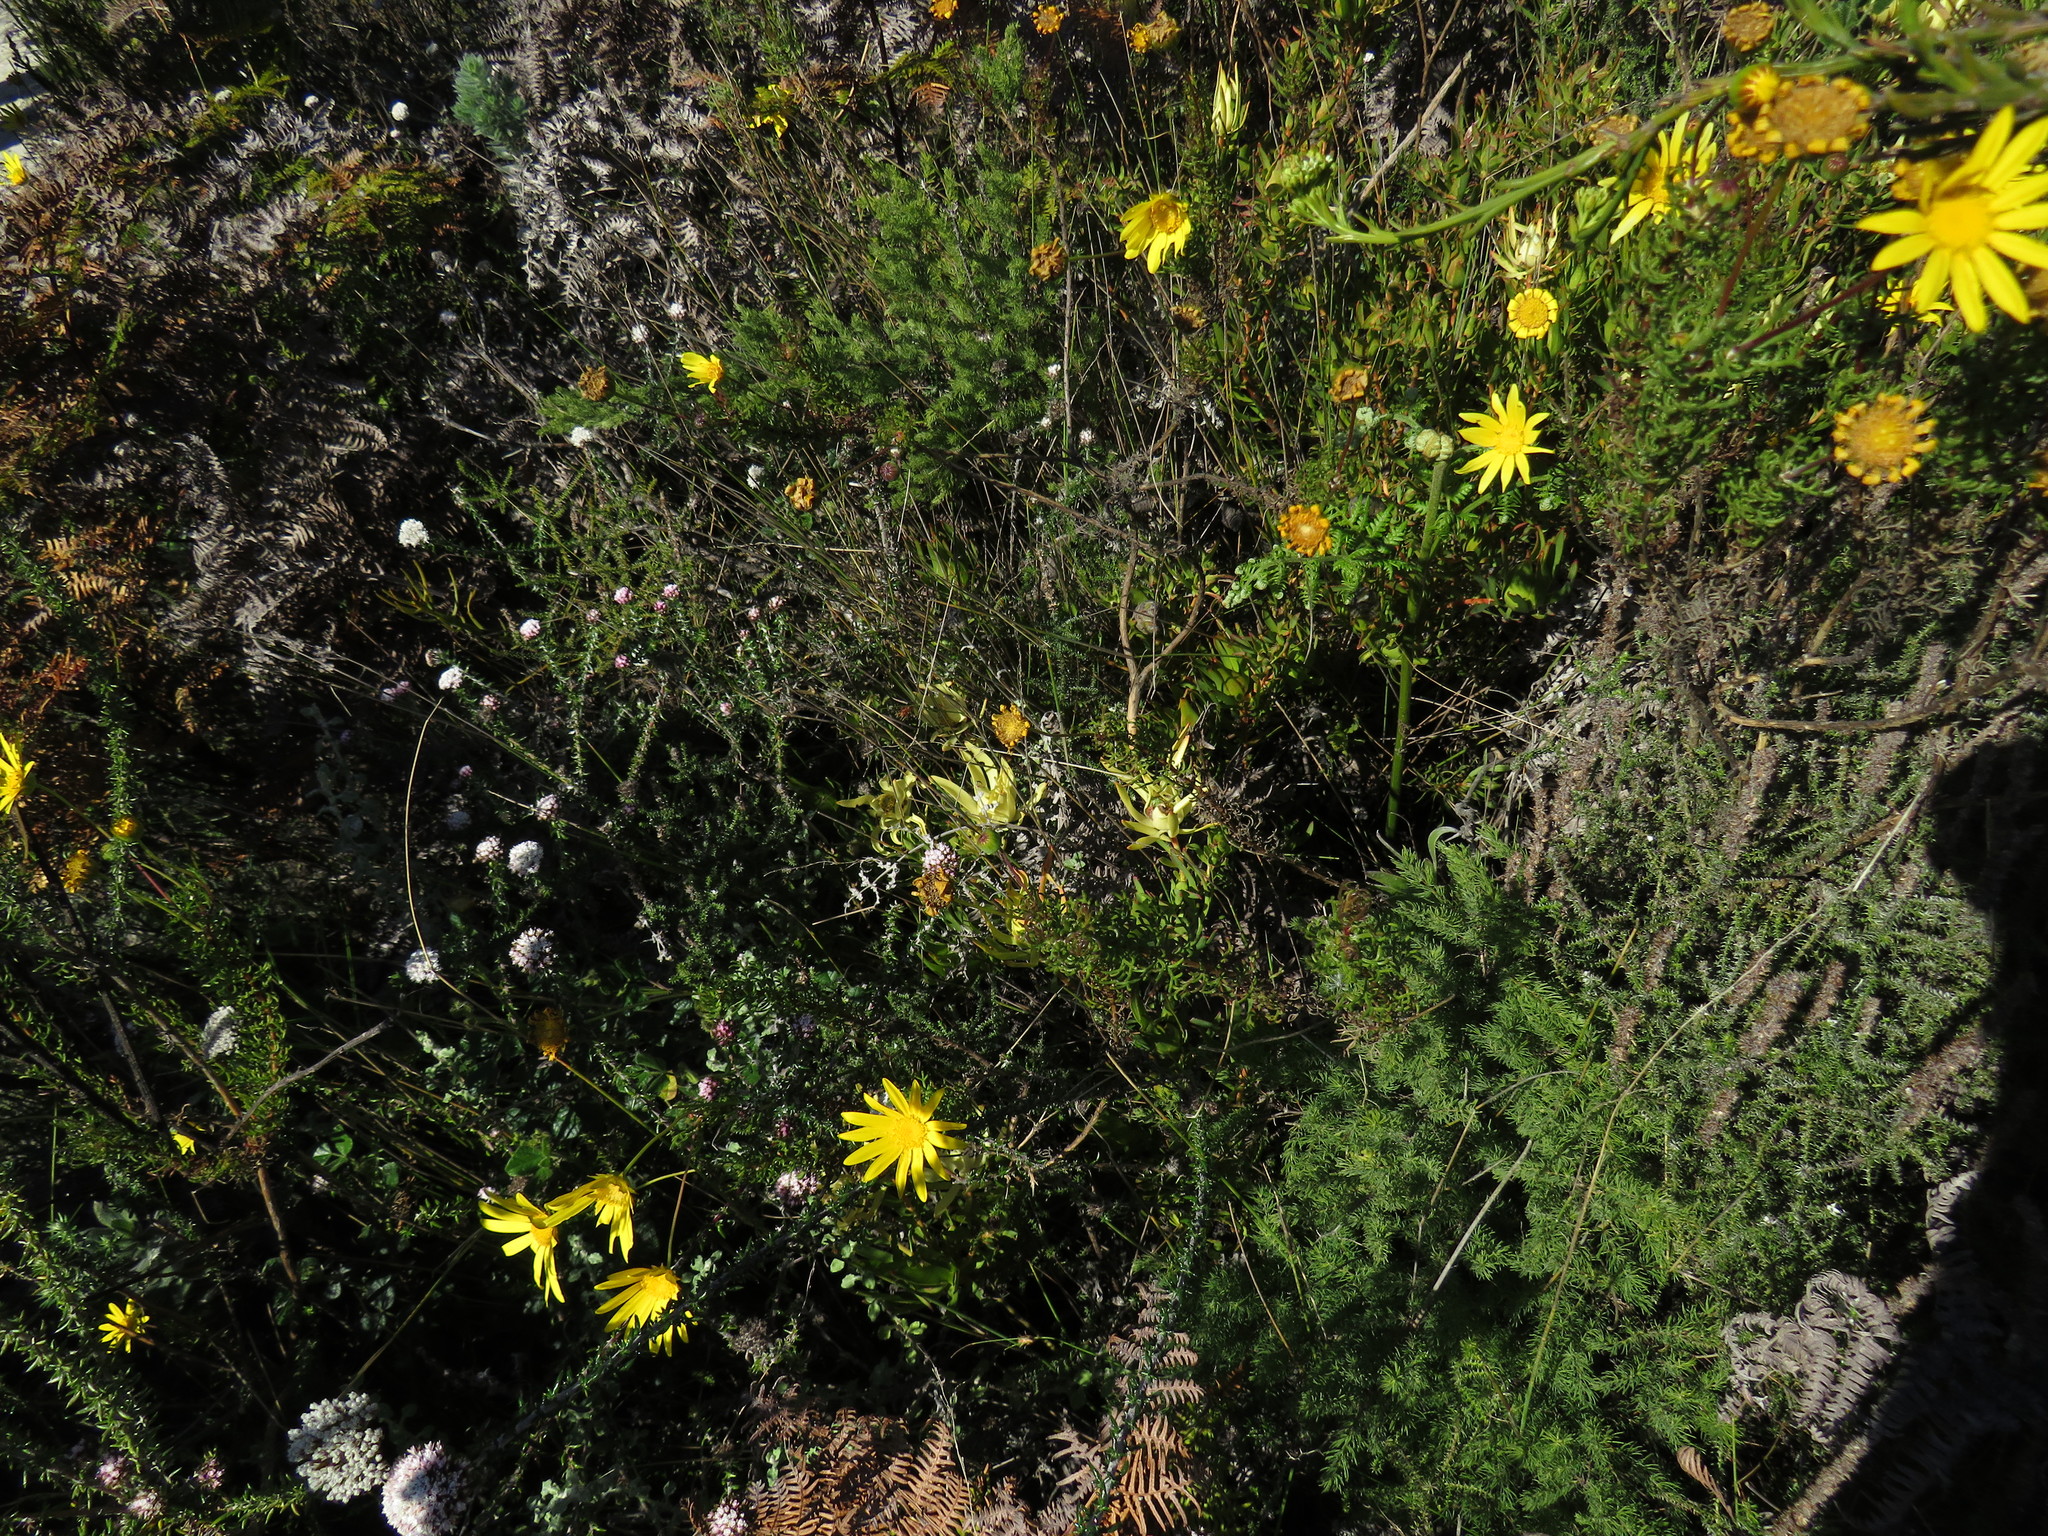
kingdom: Plantae
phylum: Tracheophyta
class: Magnoliopsida
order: Proteales
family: Proteaceae
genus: Leucadendron
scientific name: Leucadendron salignum
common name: Common sunshine conebush
